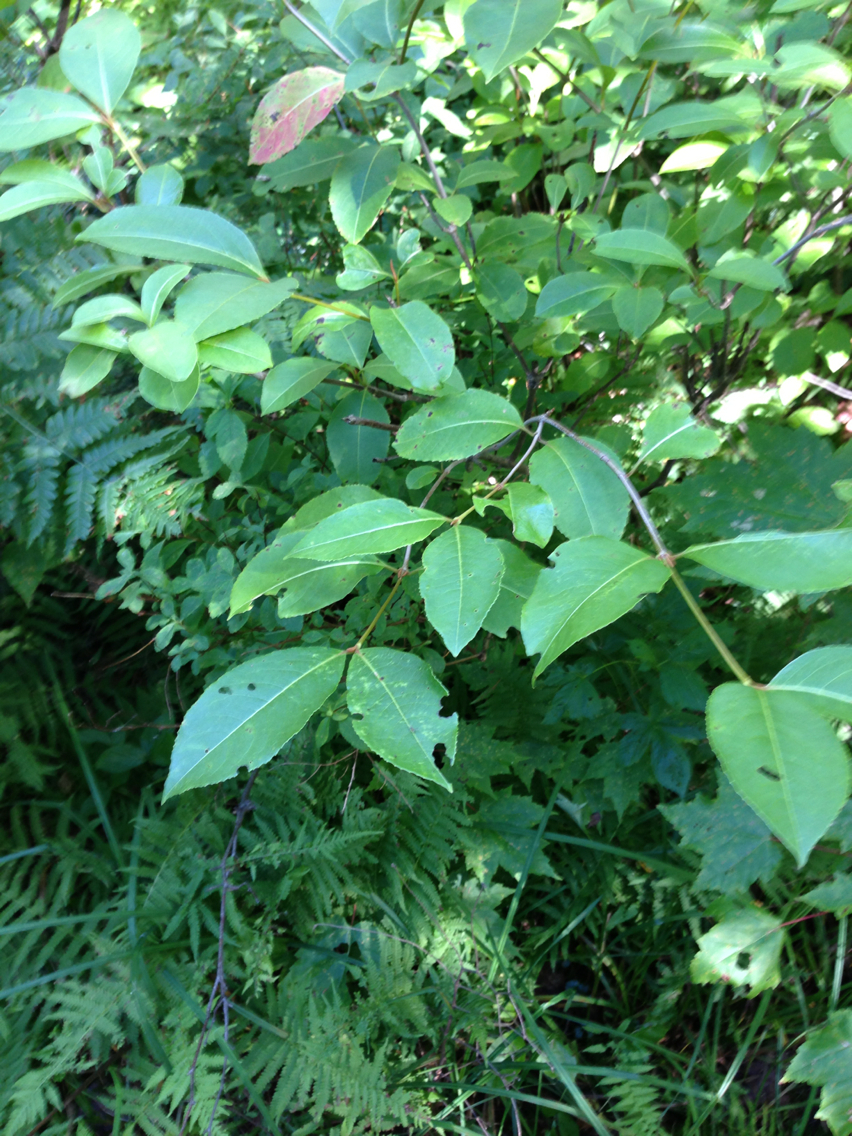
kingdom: Plantae
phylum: Tracheophyta
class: Magnoliopsida
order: Dipsacales
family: Viburnaceae
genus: Viburnum
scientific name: Viburnum cassinoides
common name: Swamp haw
